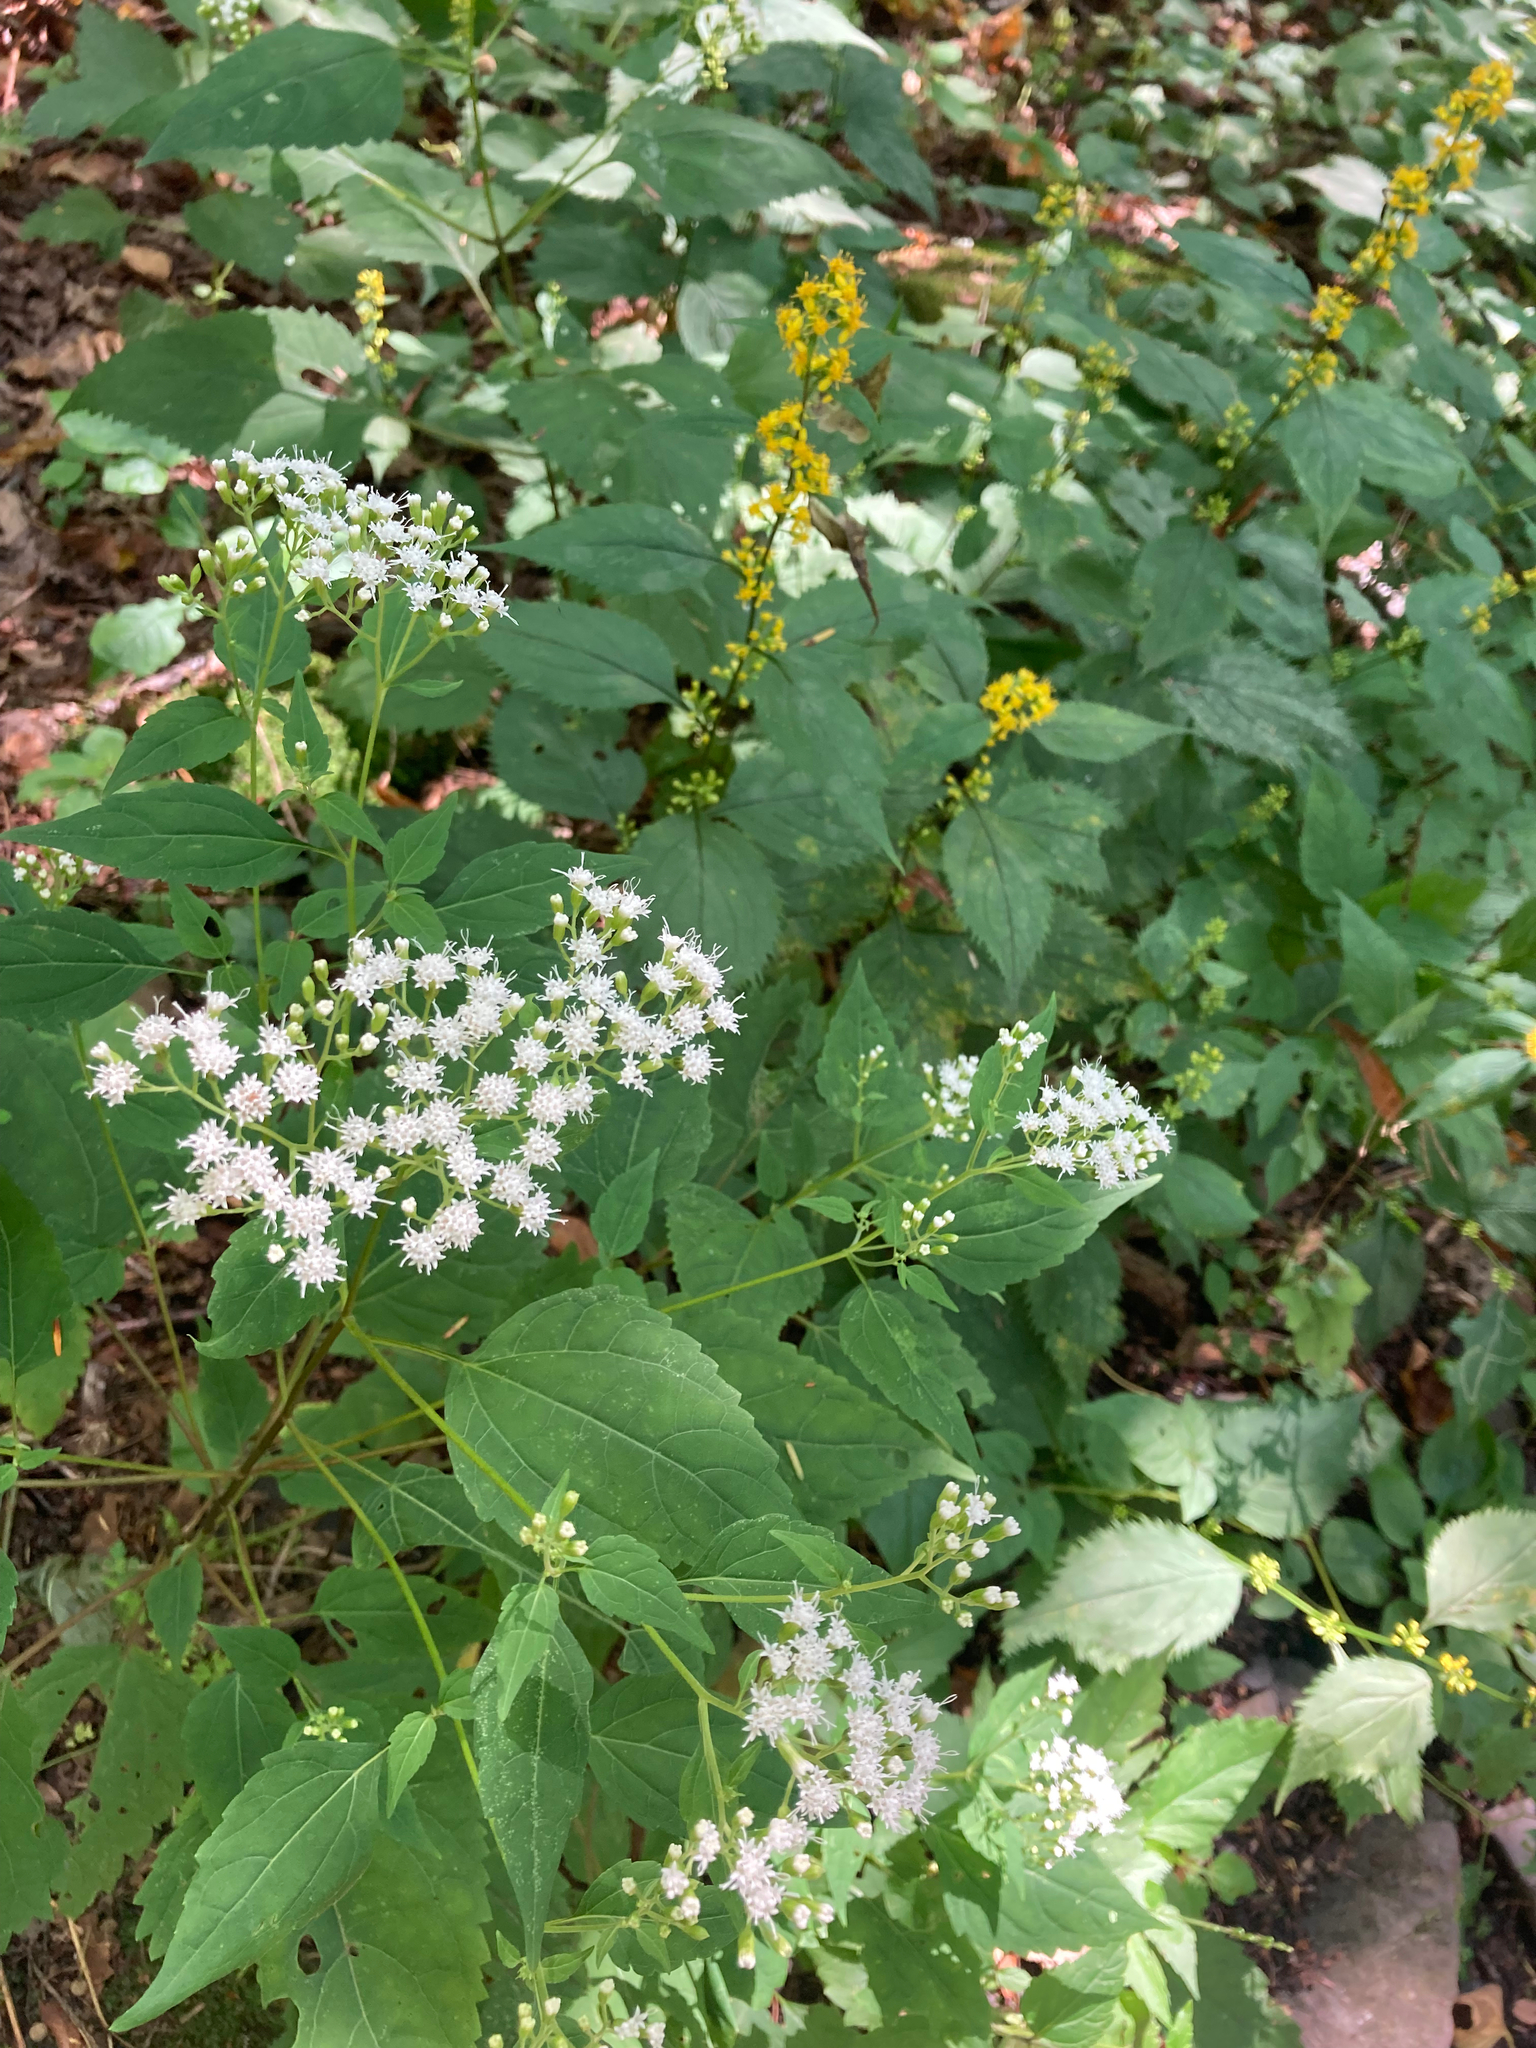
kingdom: Plantae
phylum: Tracheophyta
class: Magnoliopsida
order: Asterales
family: Asteraceae
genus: Ageratina
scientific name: Ageratina altissima
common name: White snakeroot
